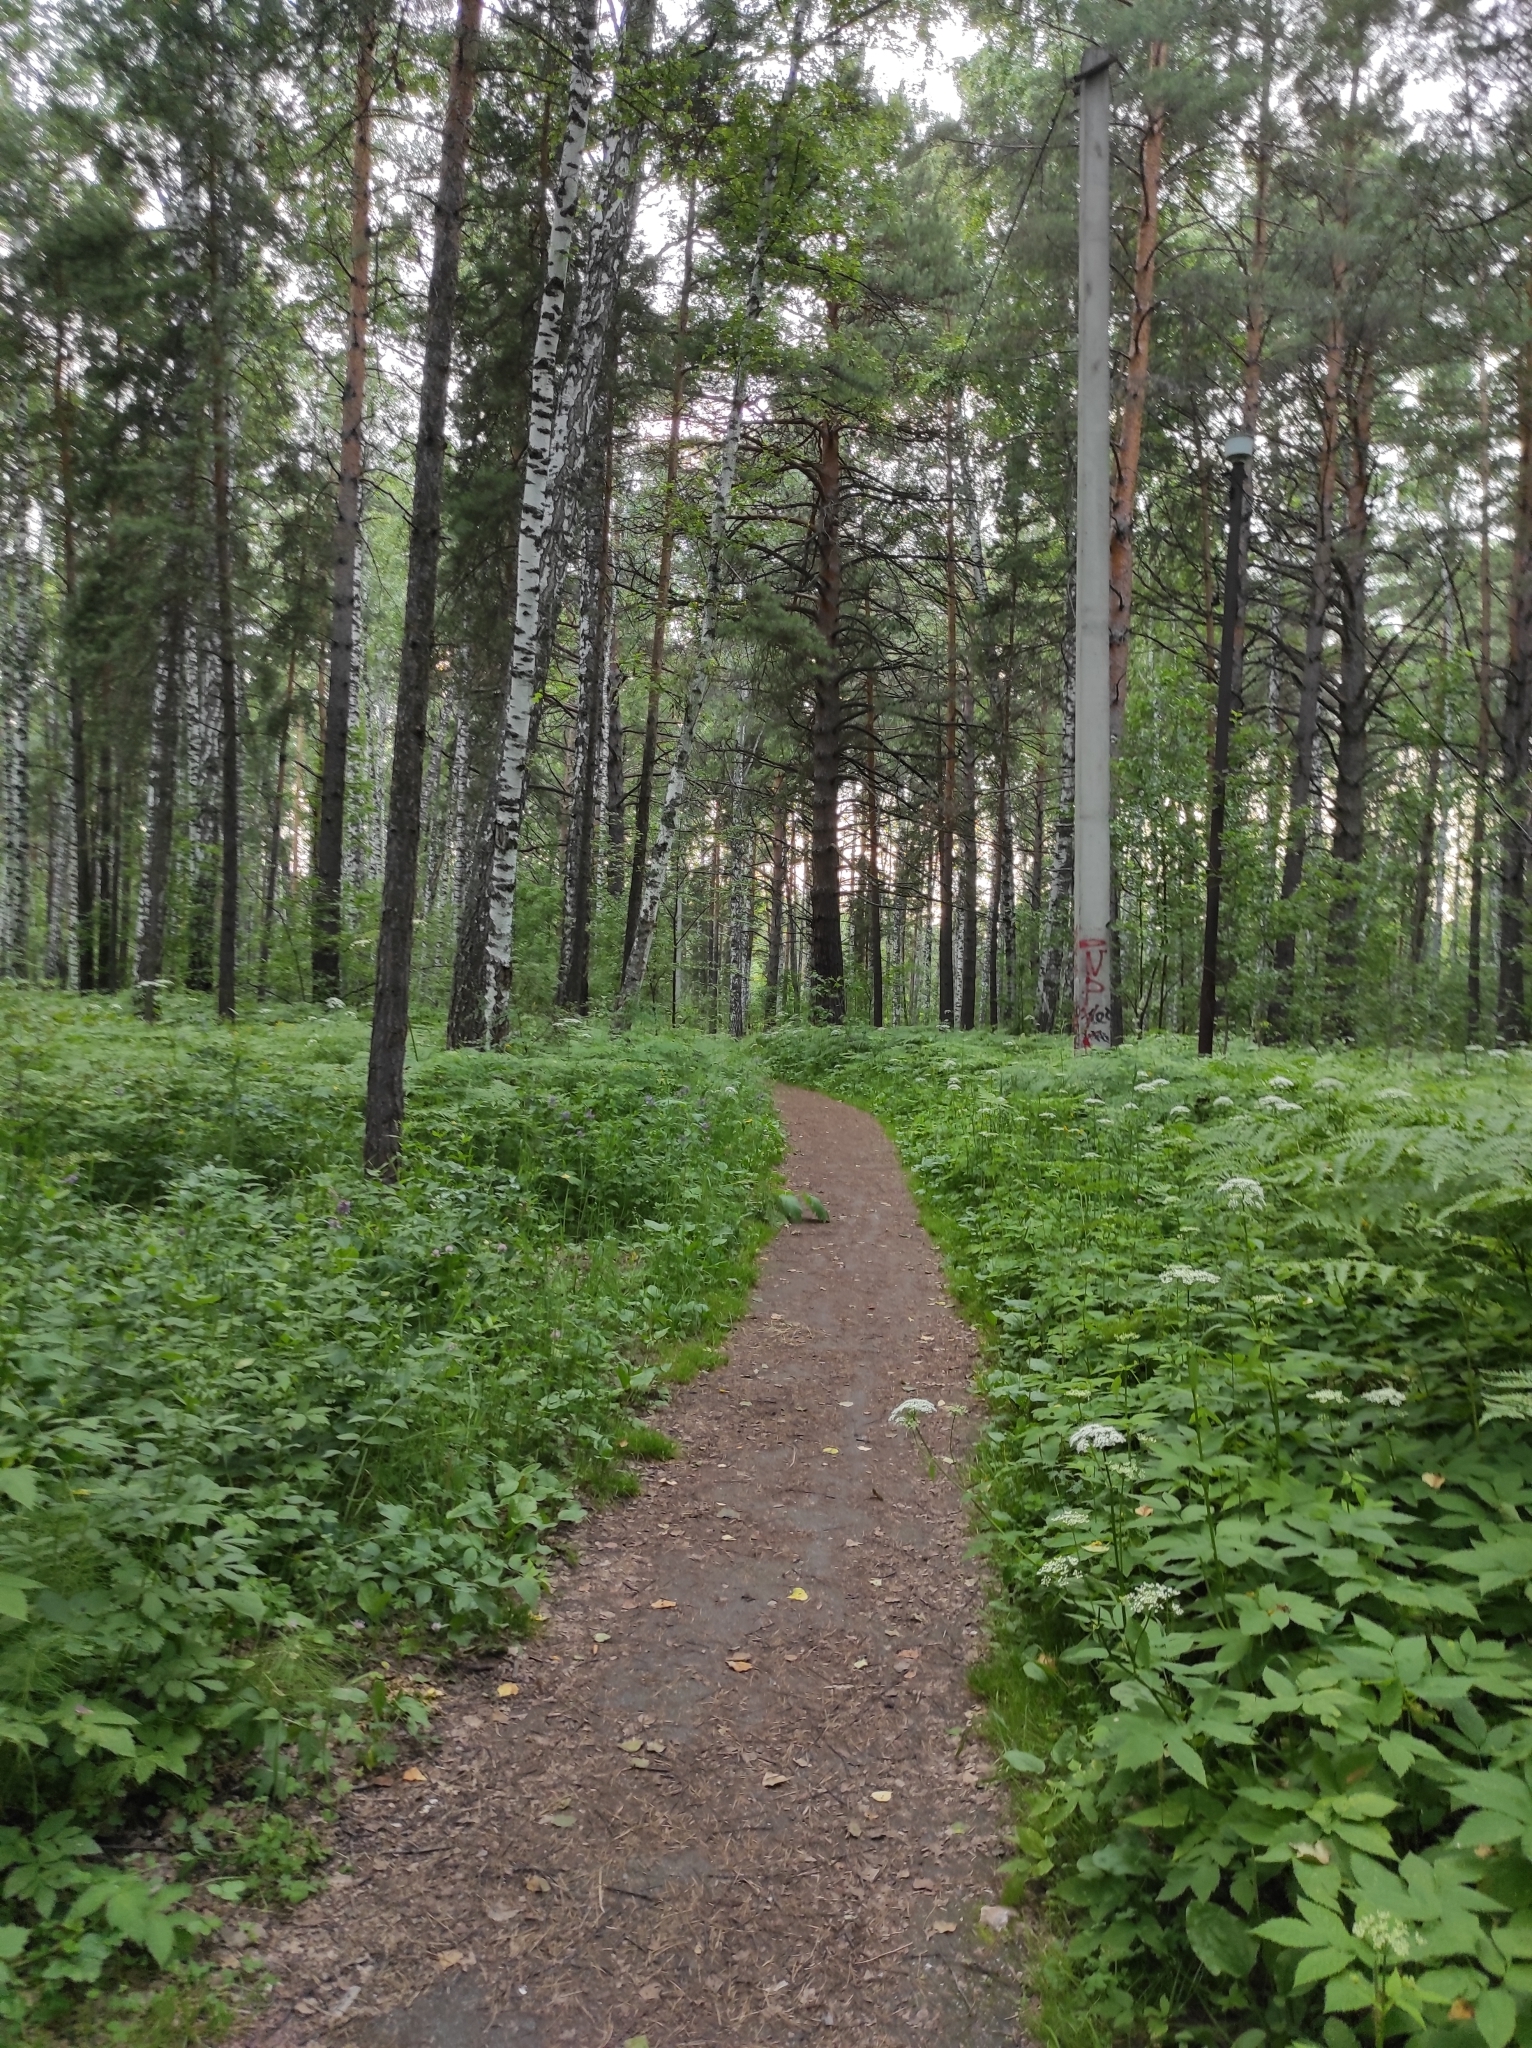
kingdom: Plantae
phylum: Tracheophyta
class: Magnoliopsida
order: Fagales
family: Betulaceae
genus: Betula
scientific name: Betula pendula
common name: Silver birch
